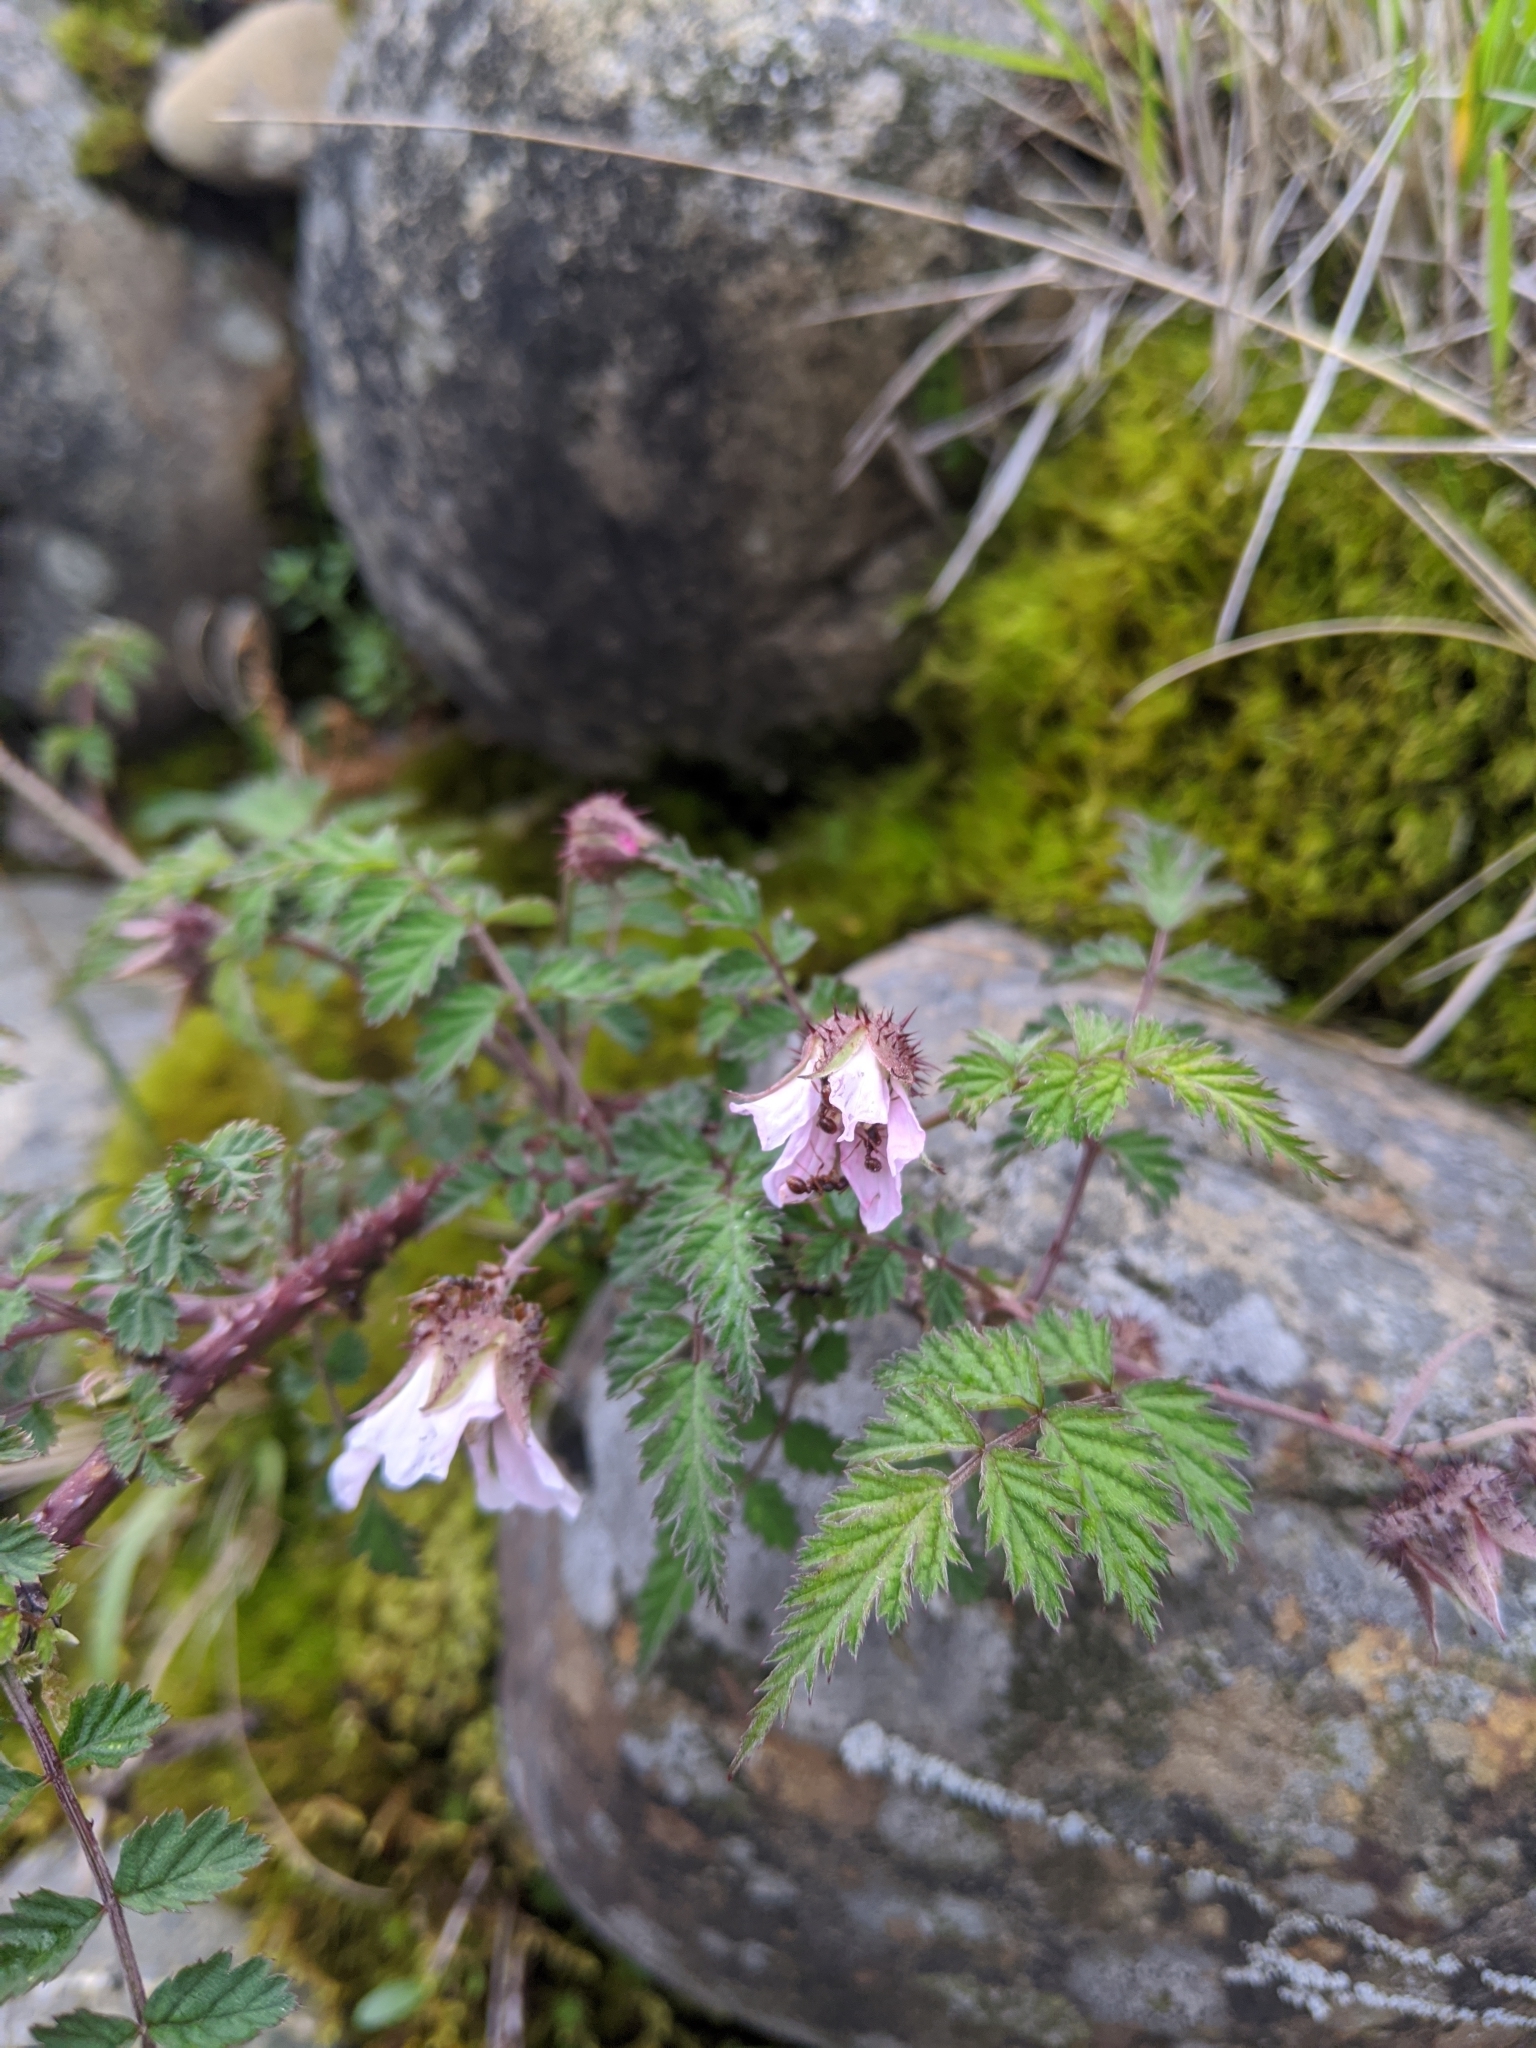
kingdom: Plantae
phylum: Tracheophyta
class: Magnoliopsida
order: Rosales
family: Rosaceae
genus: Rubus
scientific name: Rubus pungens
